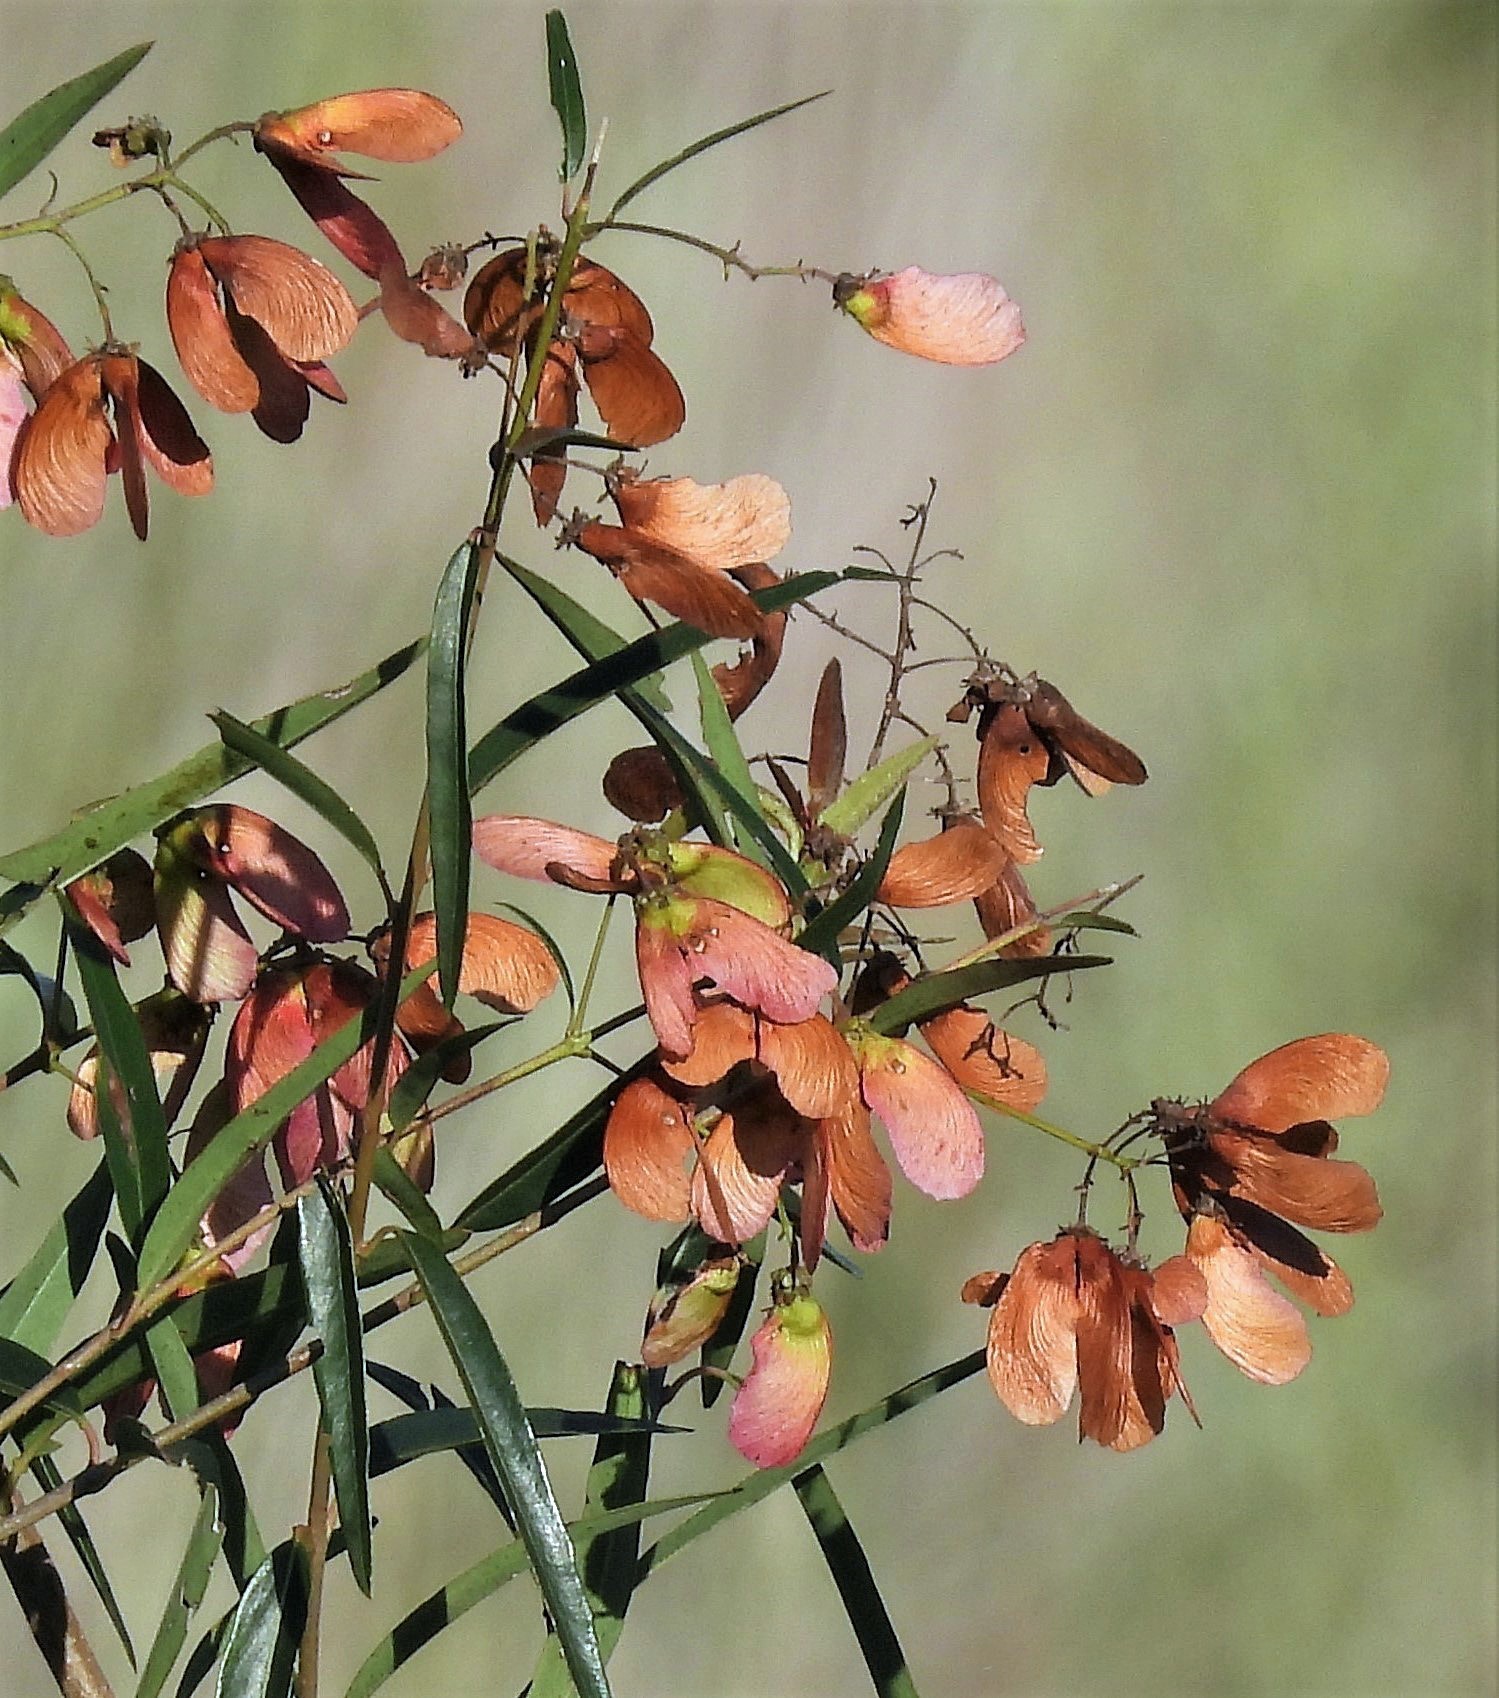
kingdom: Plantae
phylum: Tracheophyta
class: Magnoliopsida
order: Malpighiales
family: Malpighiaceae
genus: Heteropterys
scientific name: Heteropterys glabra
